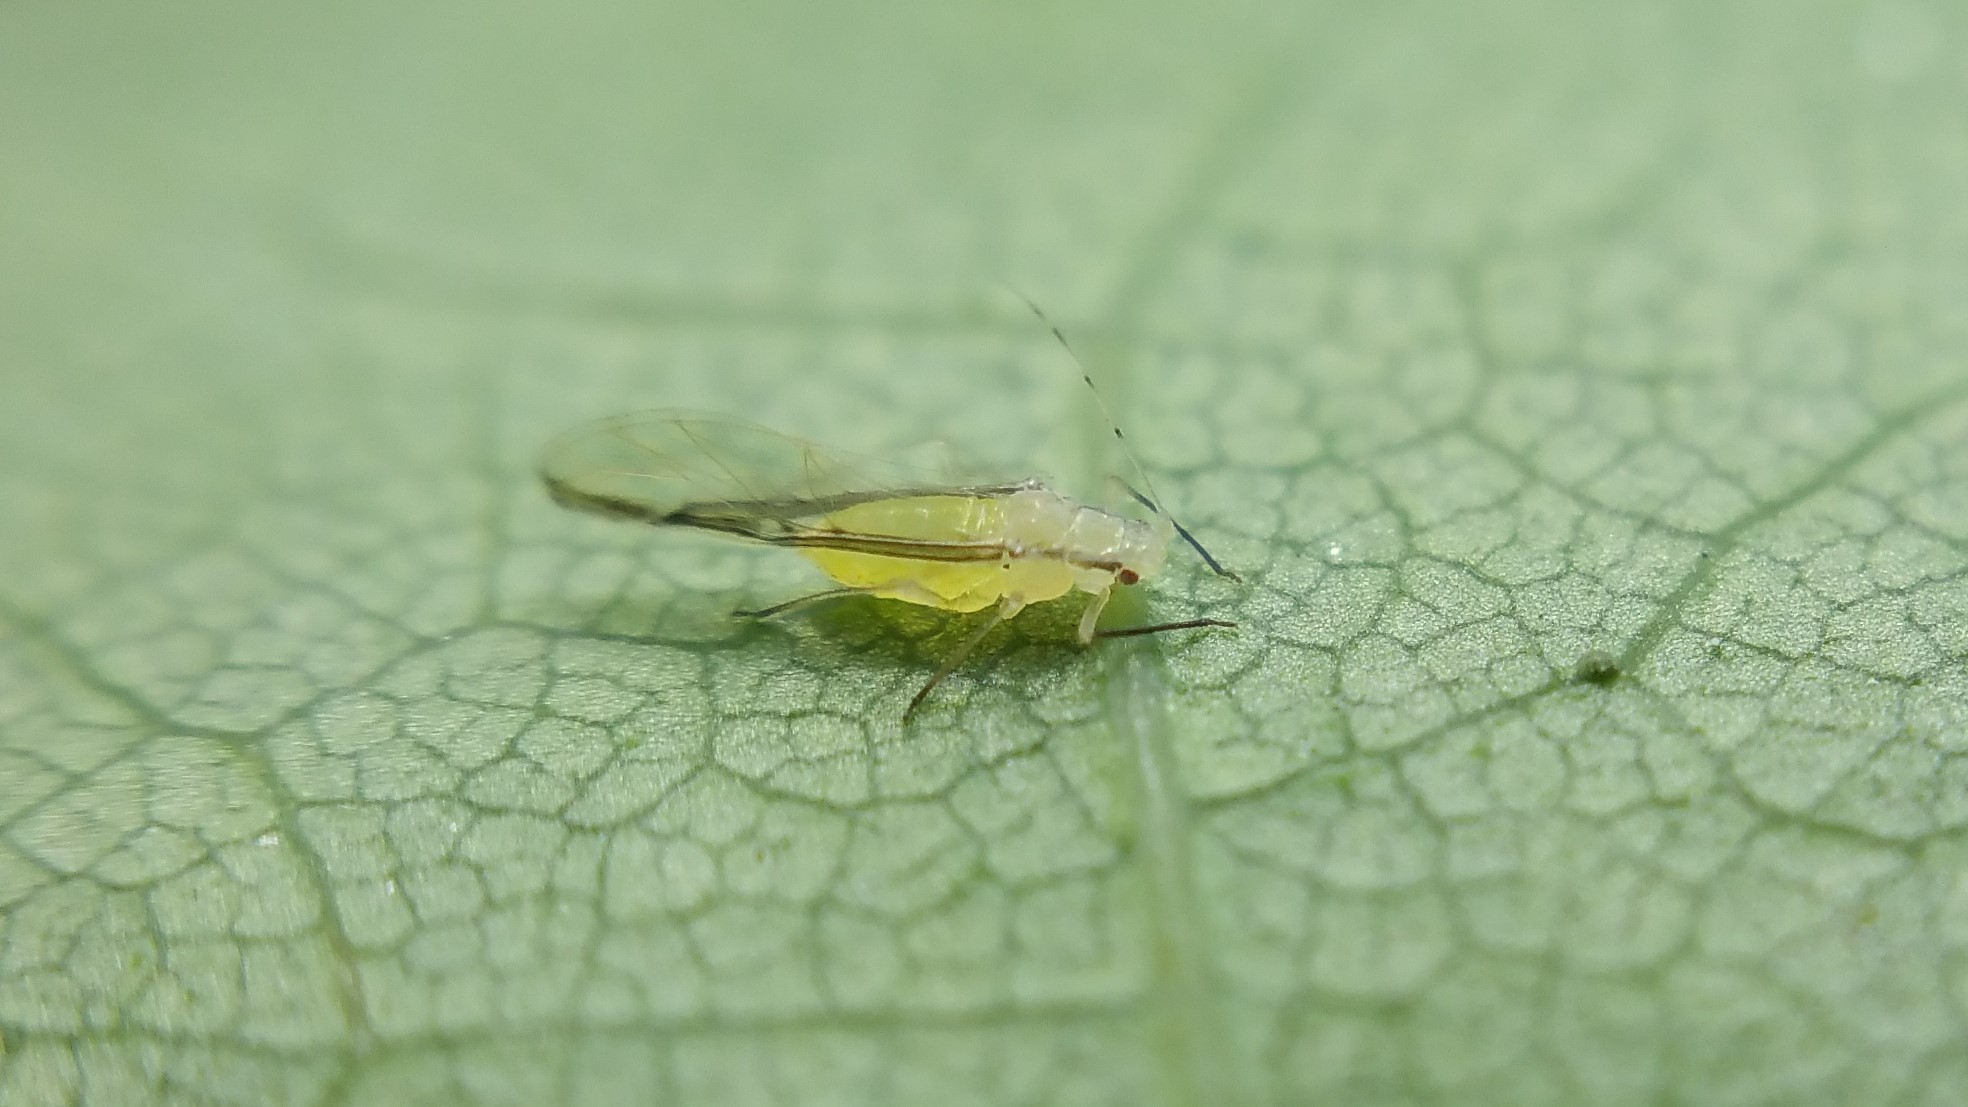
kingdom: Animalia
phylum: Arthropoda
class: Insecta
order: Hemiptera
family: Aphididae
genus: Lineomyzocallis
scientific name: Lineomyzocallis
